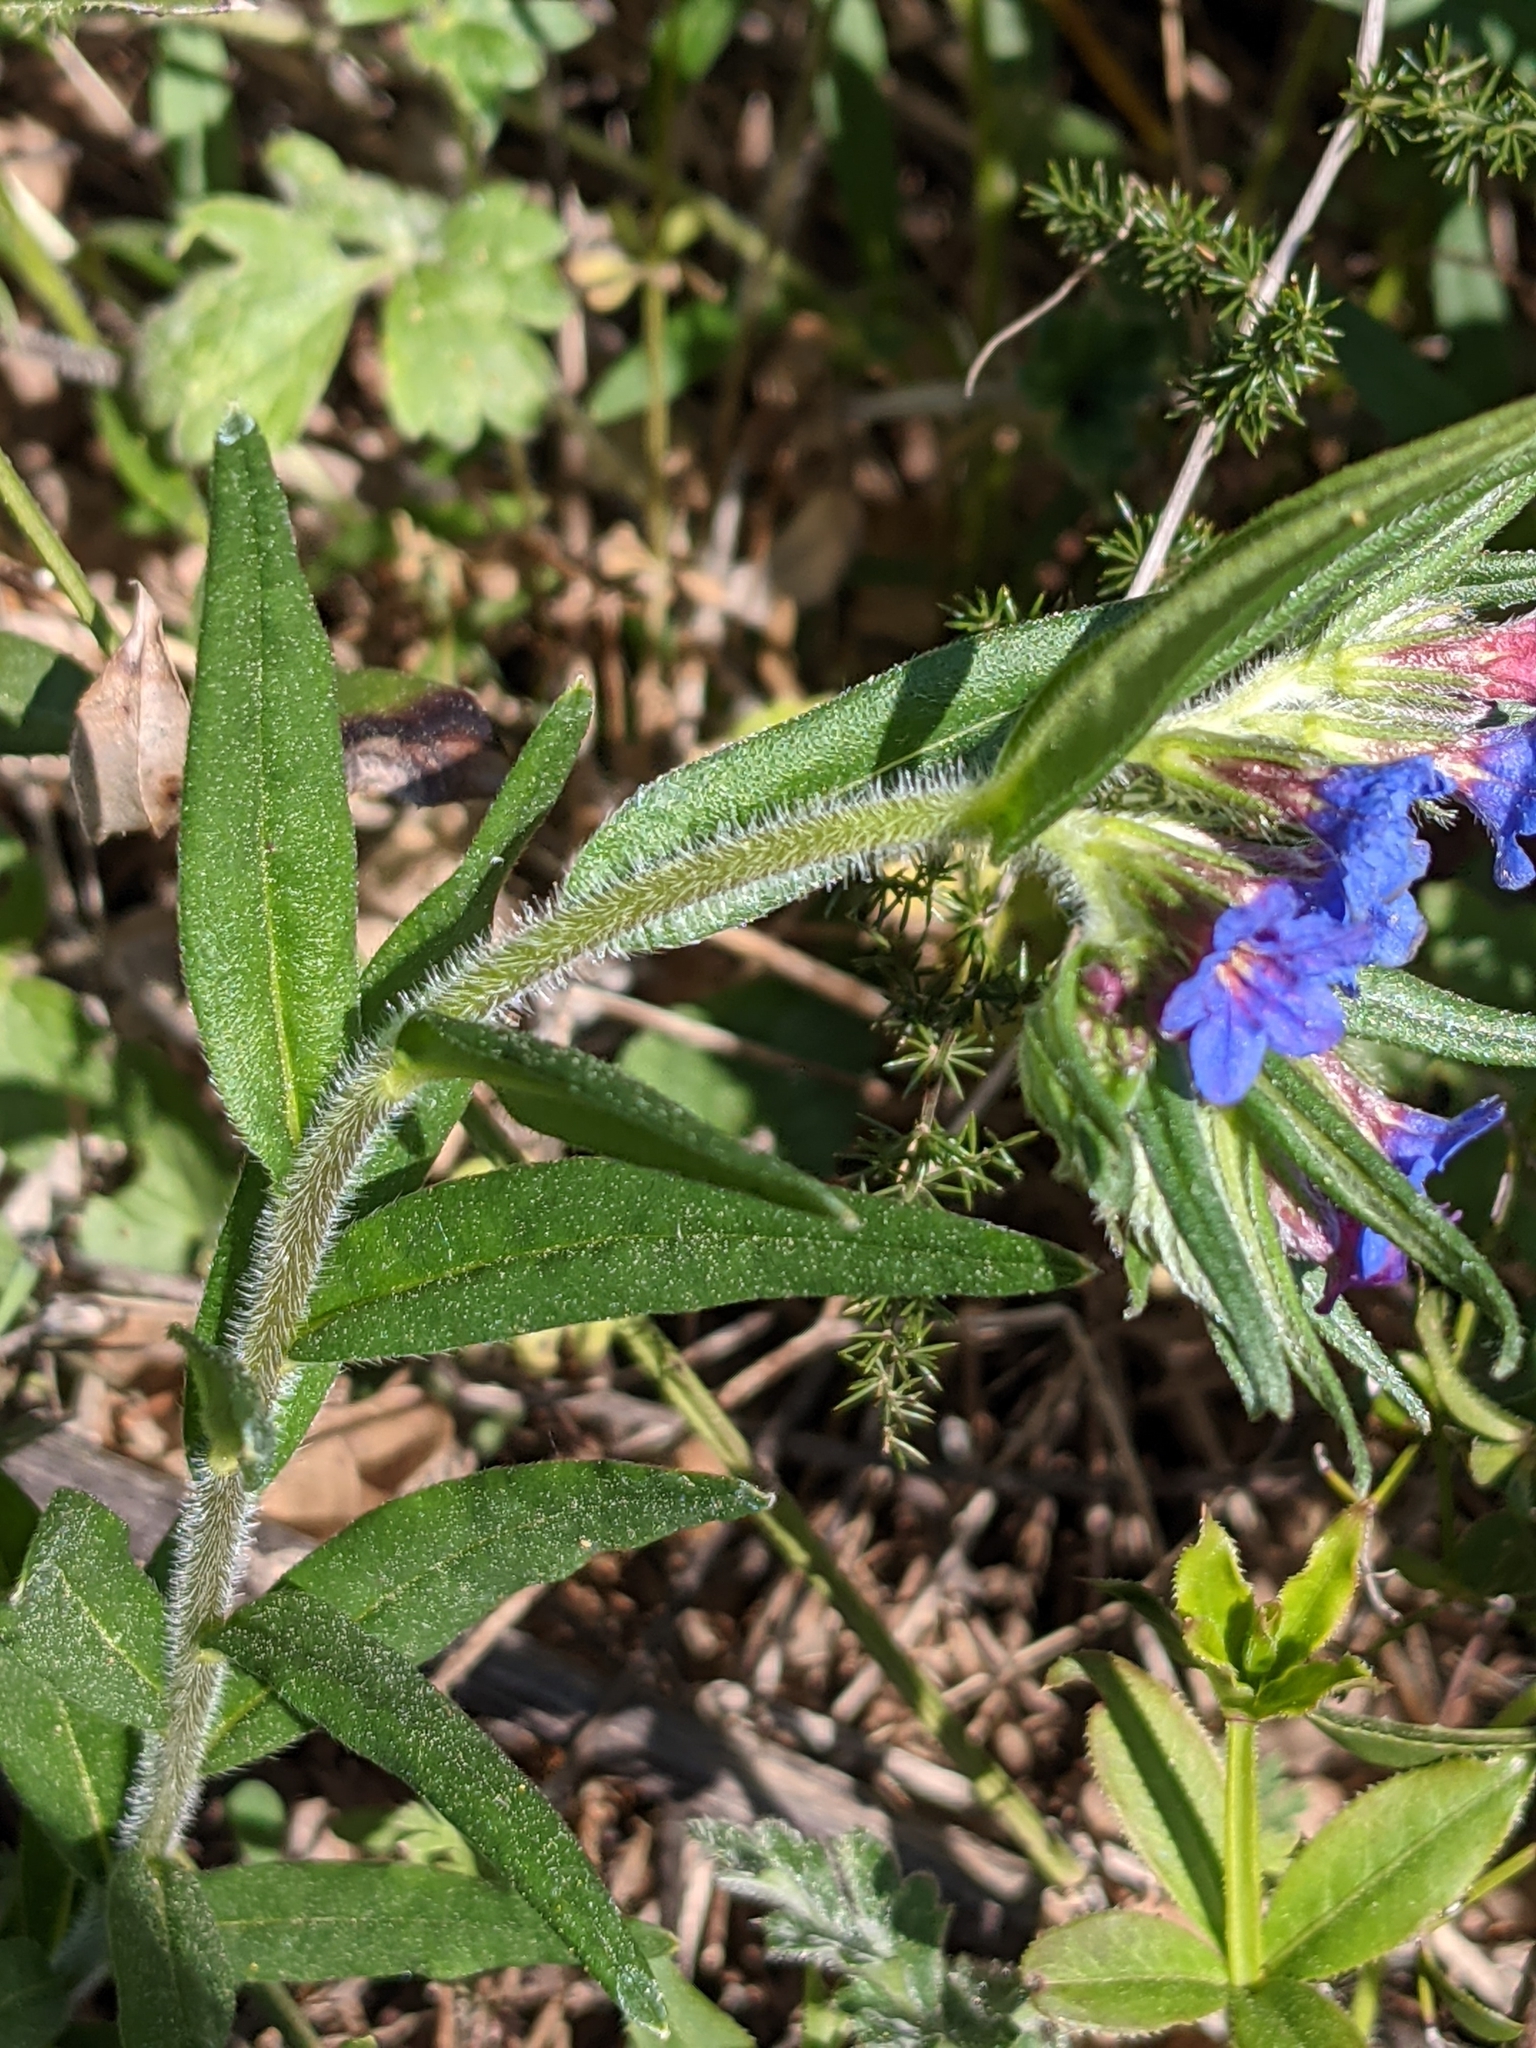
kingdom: Plantae
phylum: Tracheophyta
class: Magnoliopsida
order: Boraginales
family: Boraginaceae
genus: Aegonychon
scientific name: Aegonychon purpurocaeruleum
